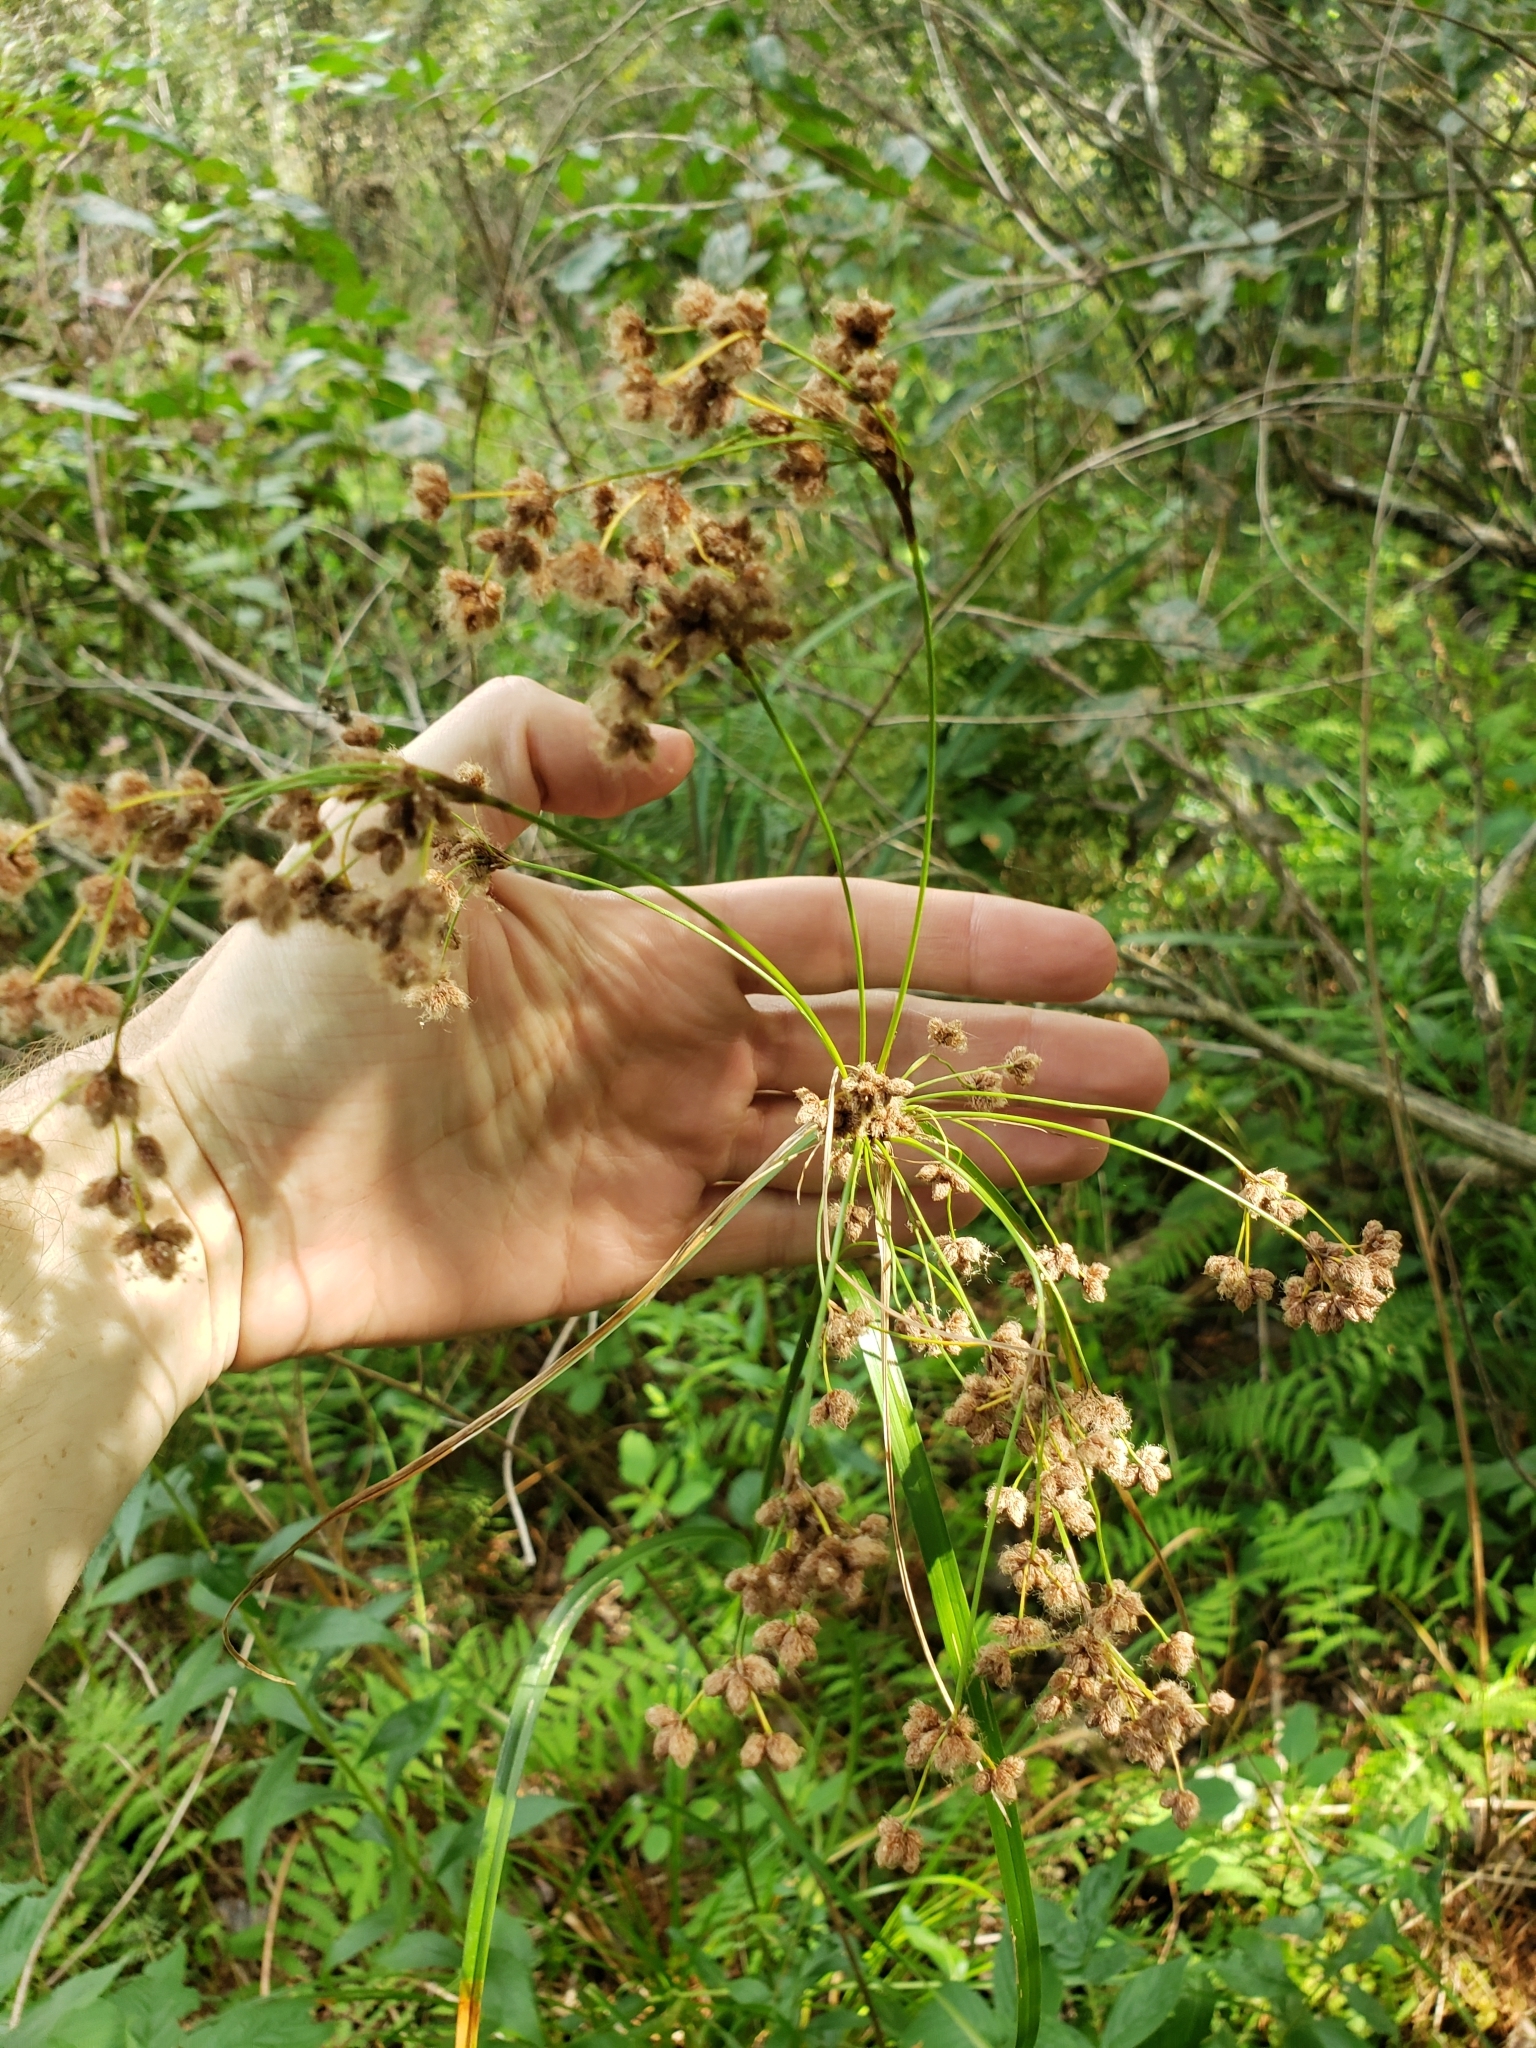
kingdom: Plantae
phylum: Tracheophyta
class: Liliopsida
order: Poales
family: Cyperaceae
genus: Scirpus
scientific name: Scirpus cyperinus
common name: Black-sheathed bulrush
